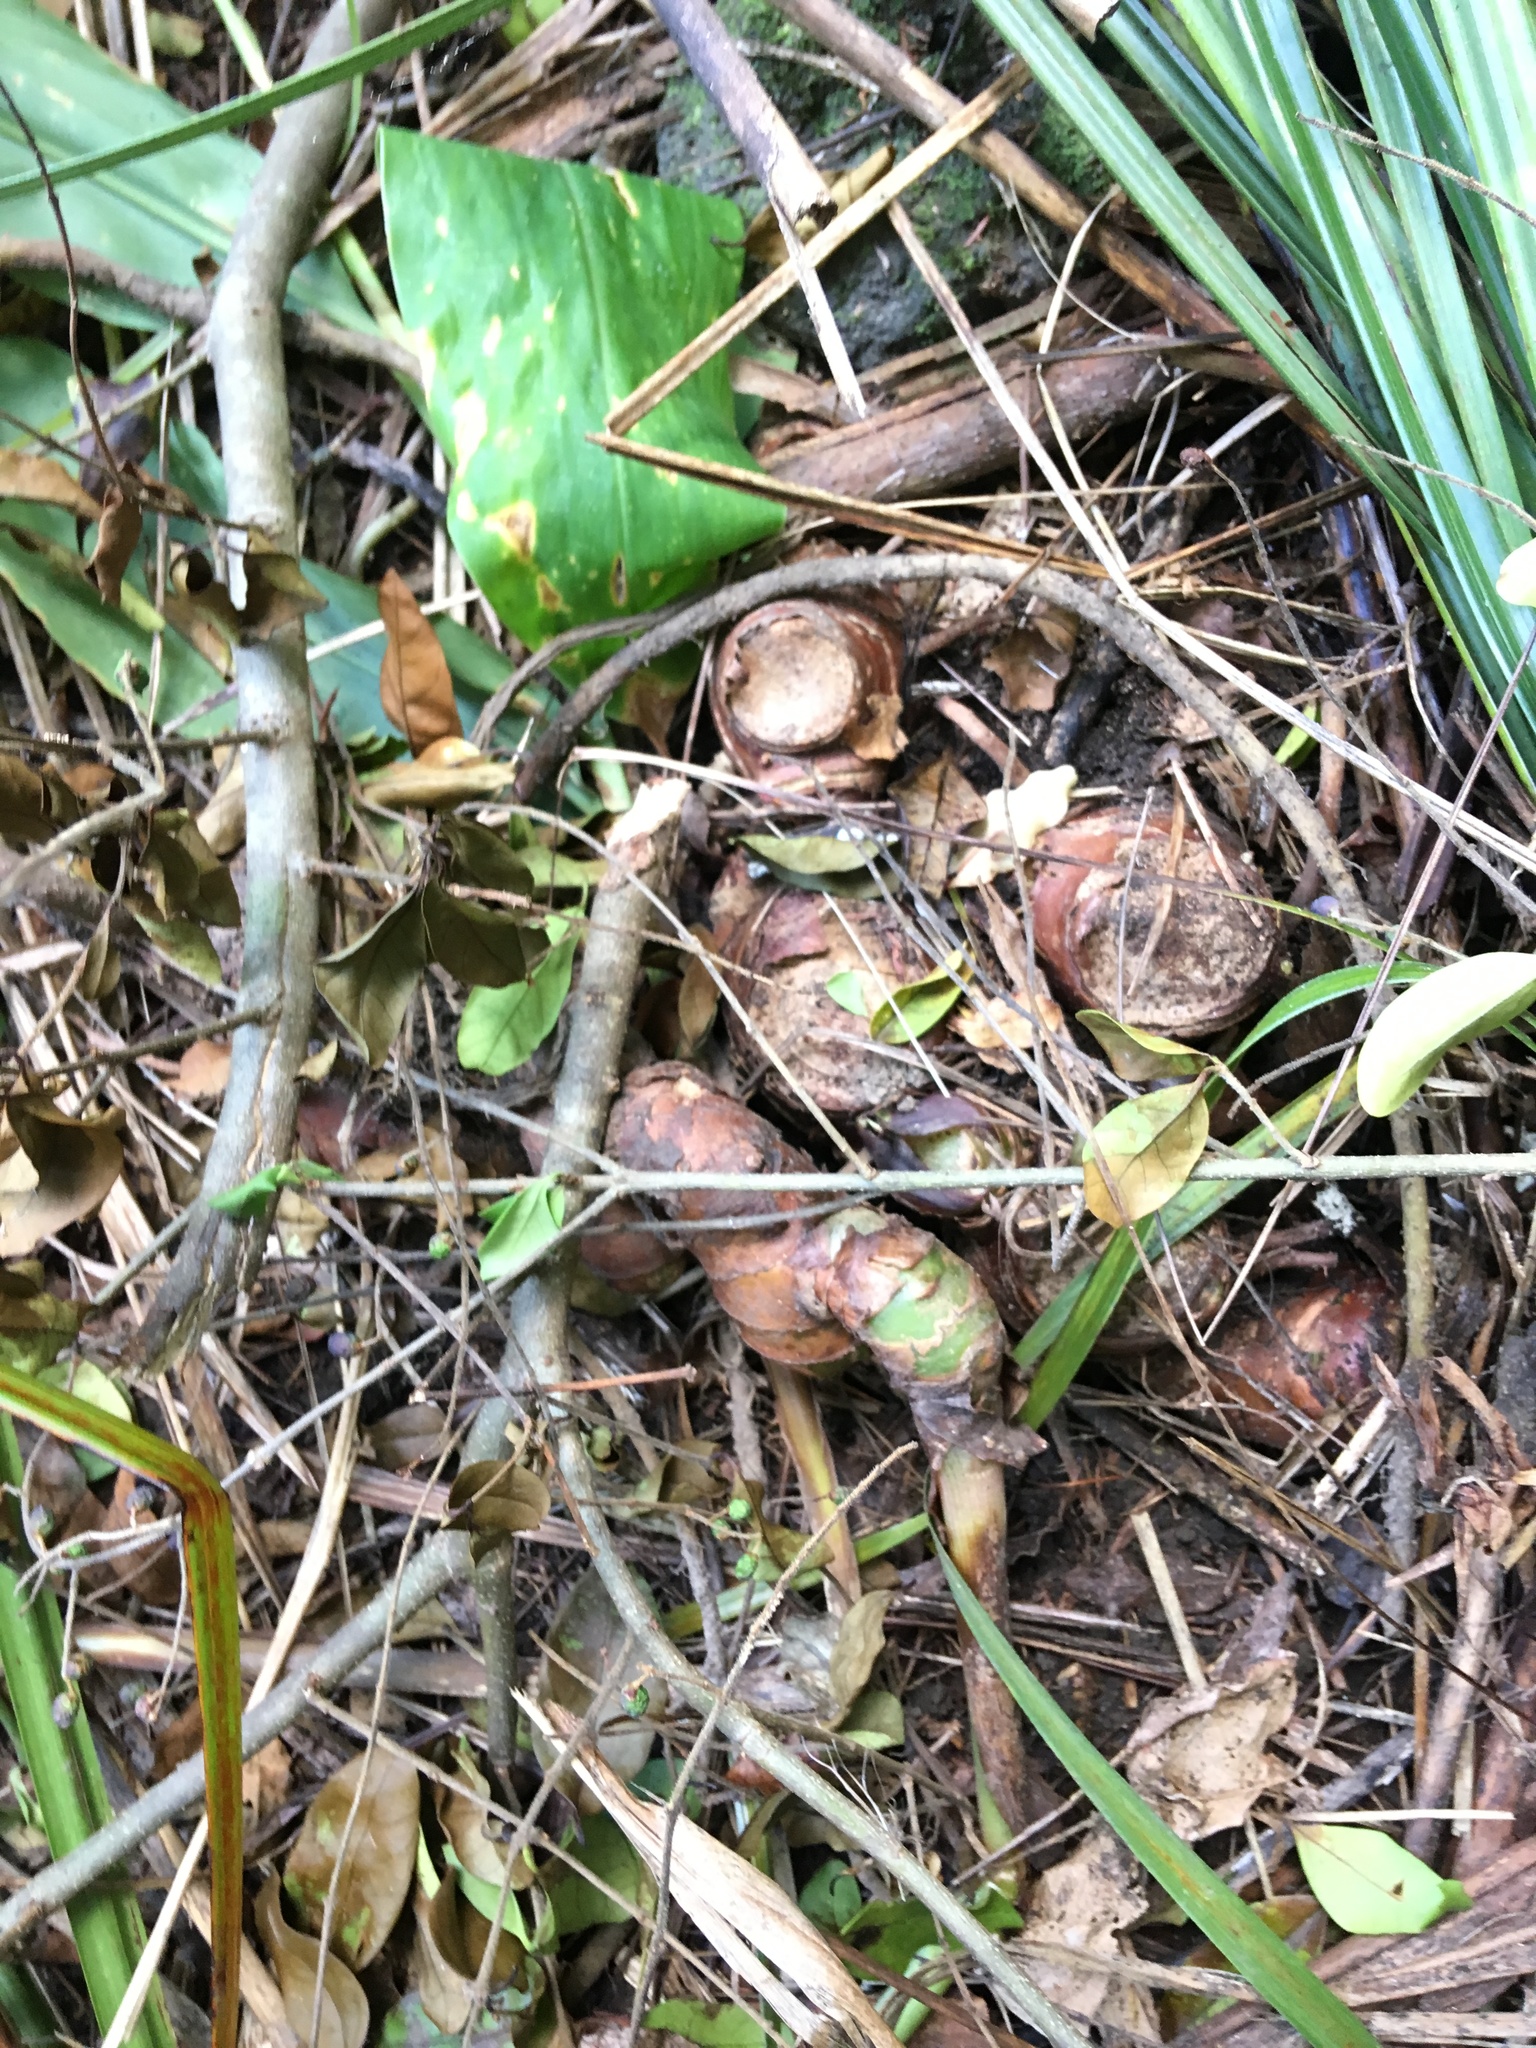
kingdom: Plantae
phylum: Tracheophyta
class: Liliopsida
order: Zingiberales
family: Zingiberaceae
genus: Hedychium
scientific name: Hedychium gardnerianum
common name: Himalayan ginger
